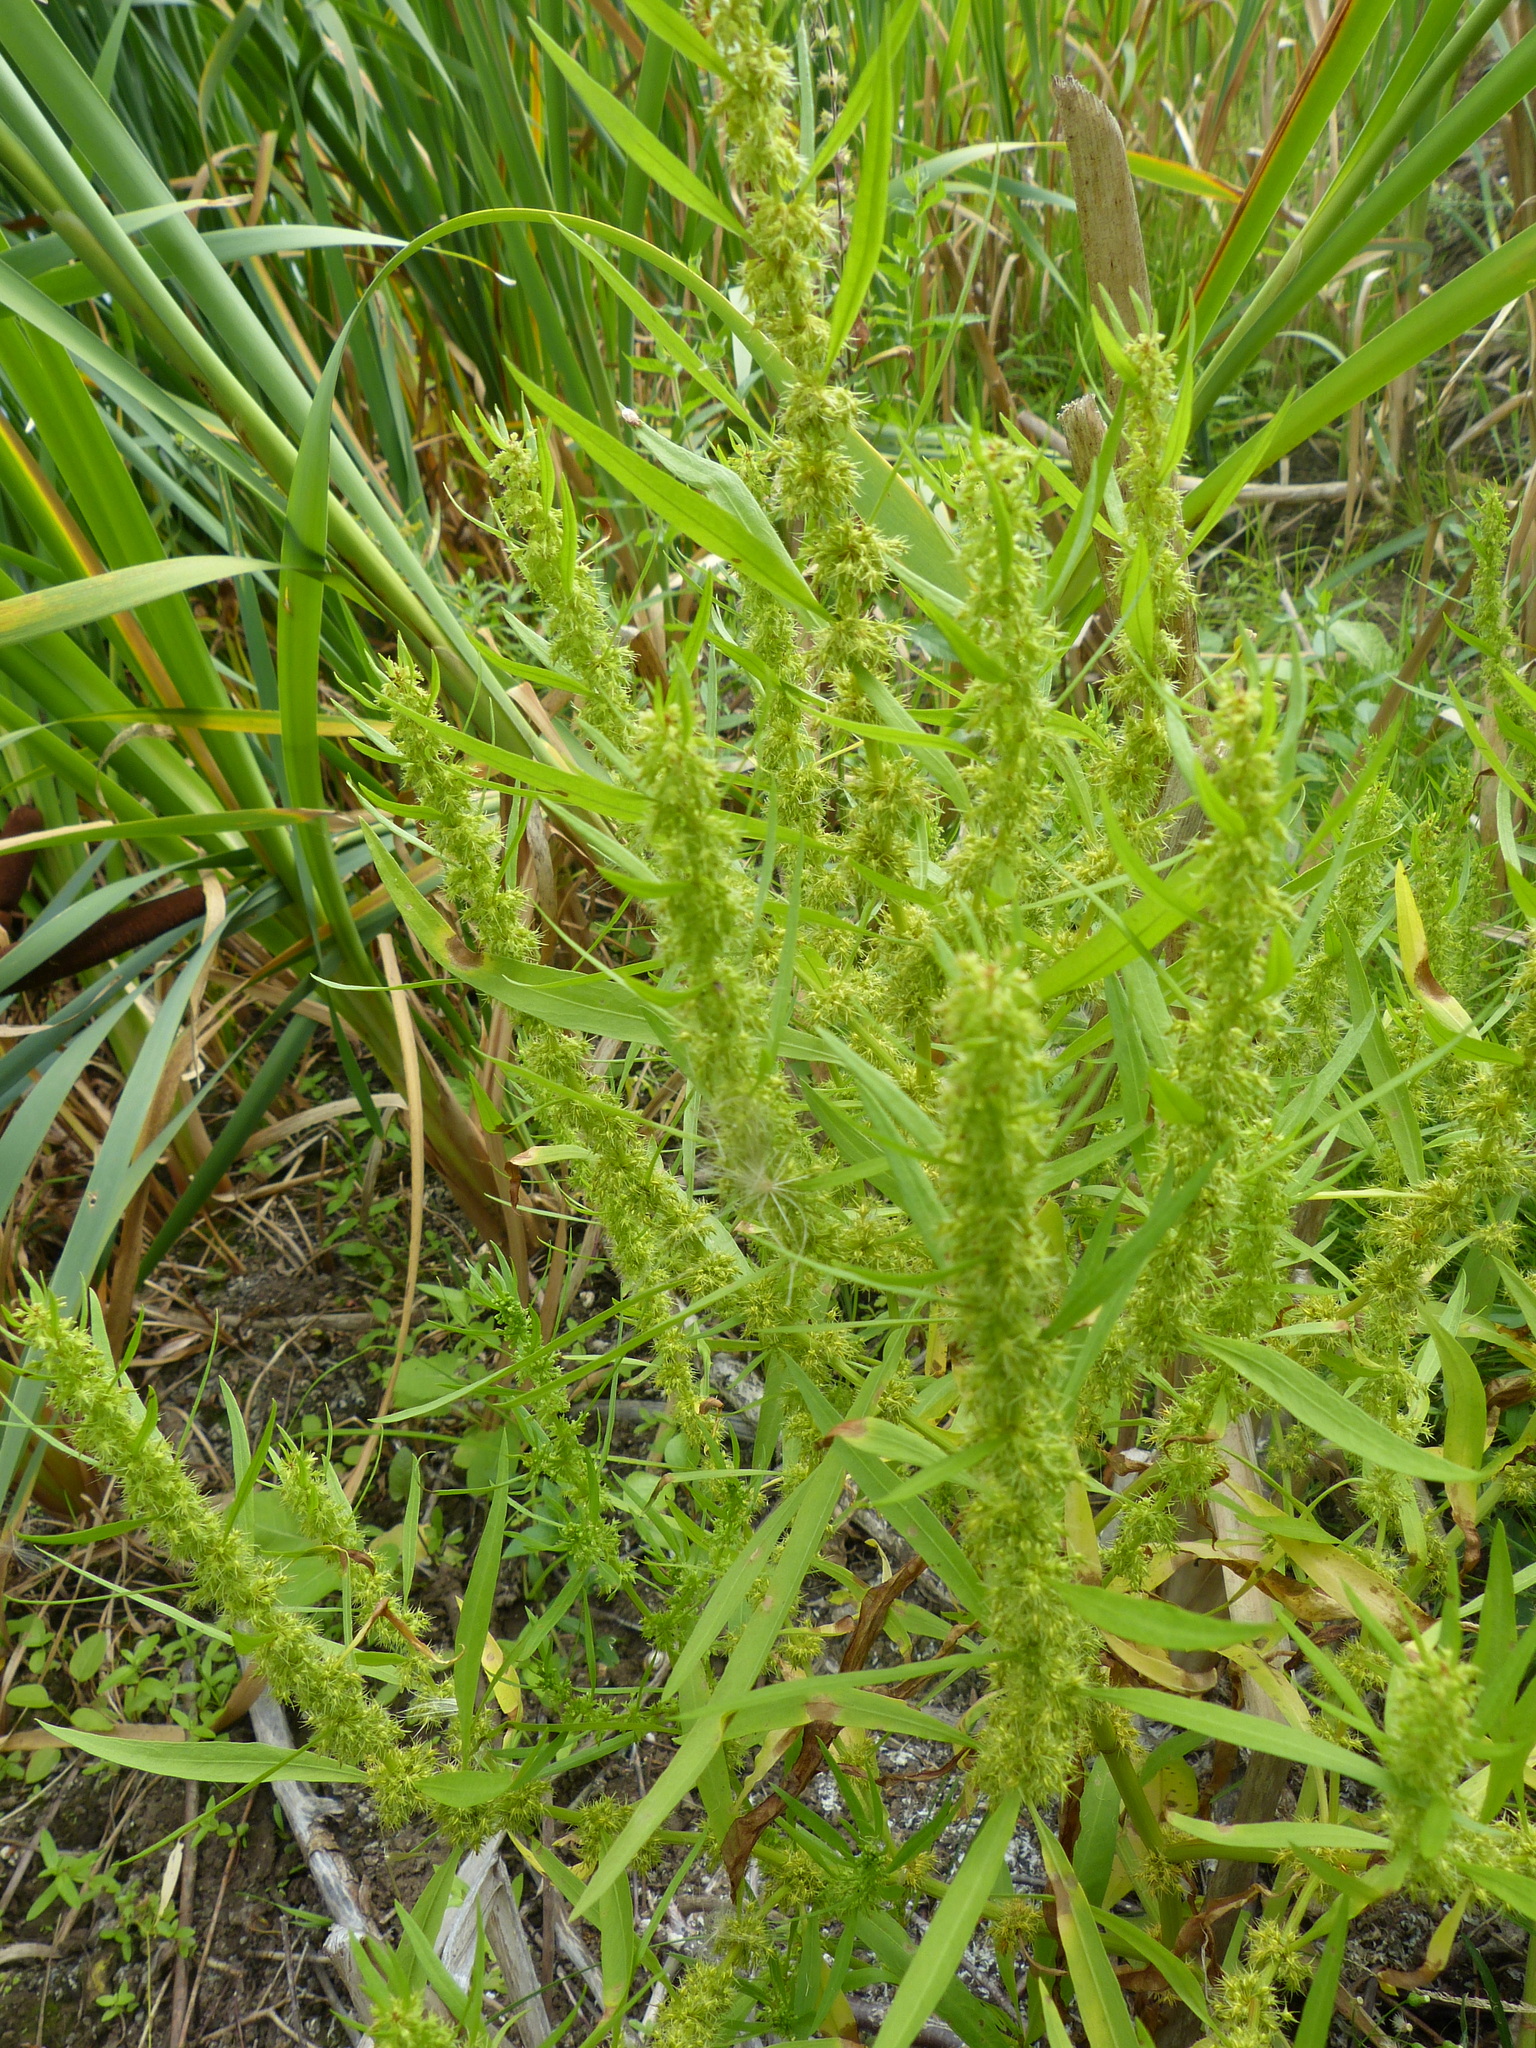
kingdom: Plantae
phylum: Tracheophyta
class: Magnoliopsida
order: Caryophyllales
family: Polygonaceae
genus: Rumex
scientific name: Rumex maritimus
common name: Golden dock
